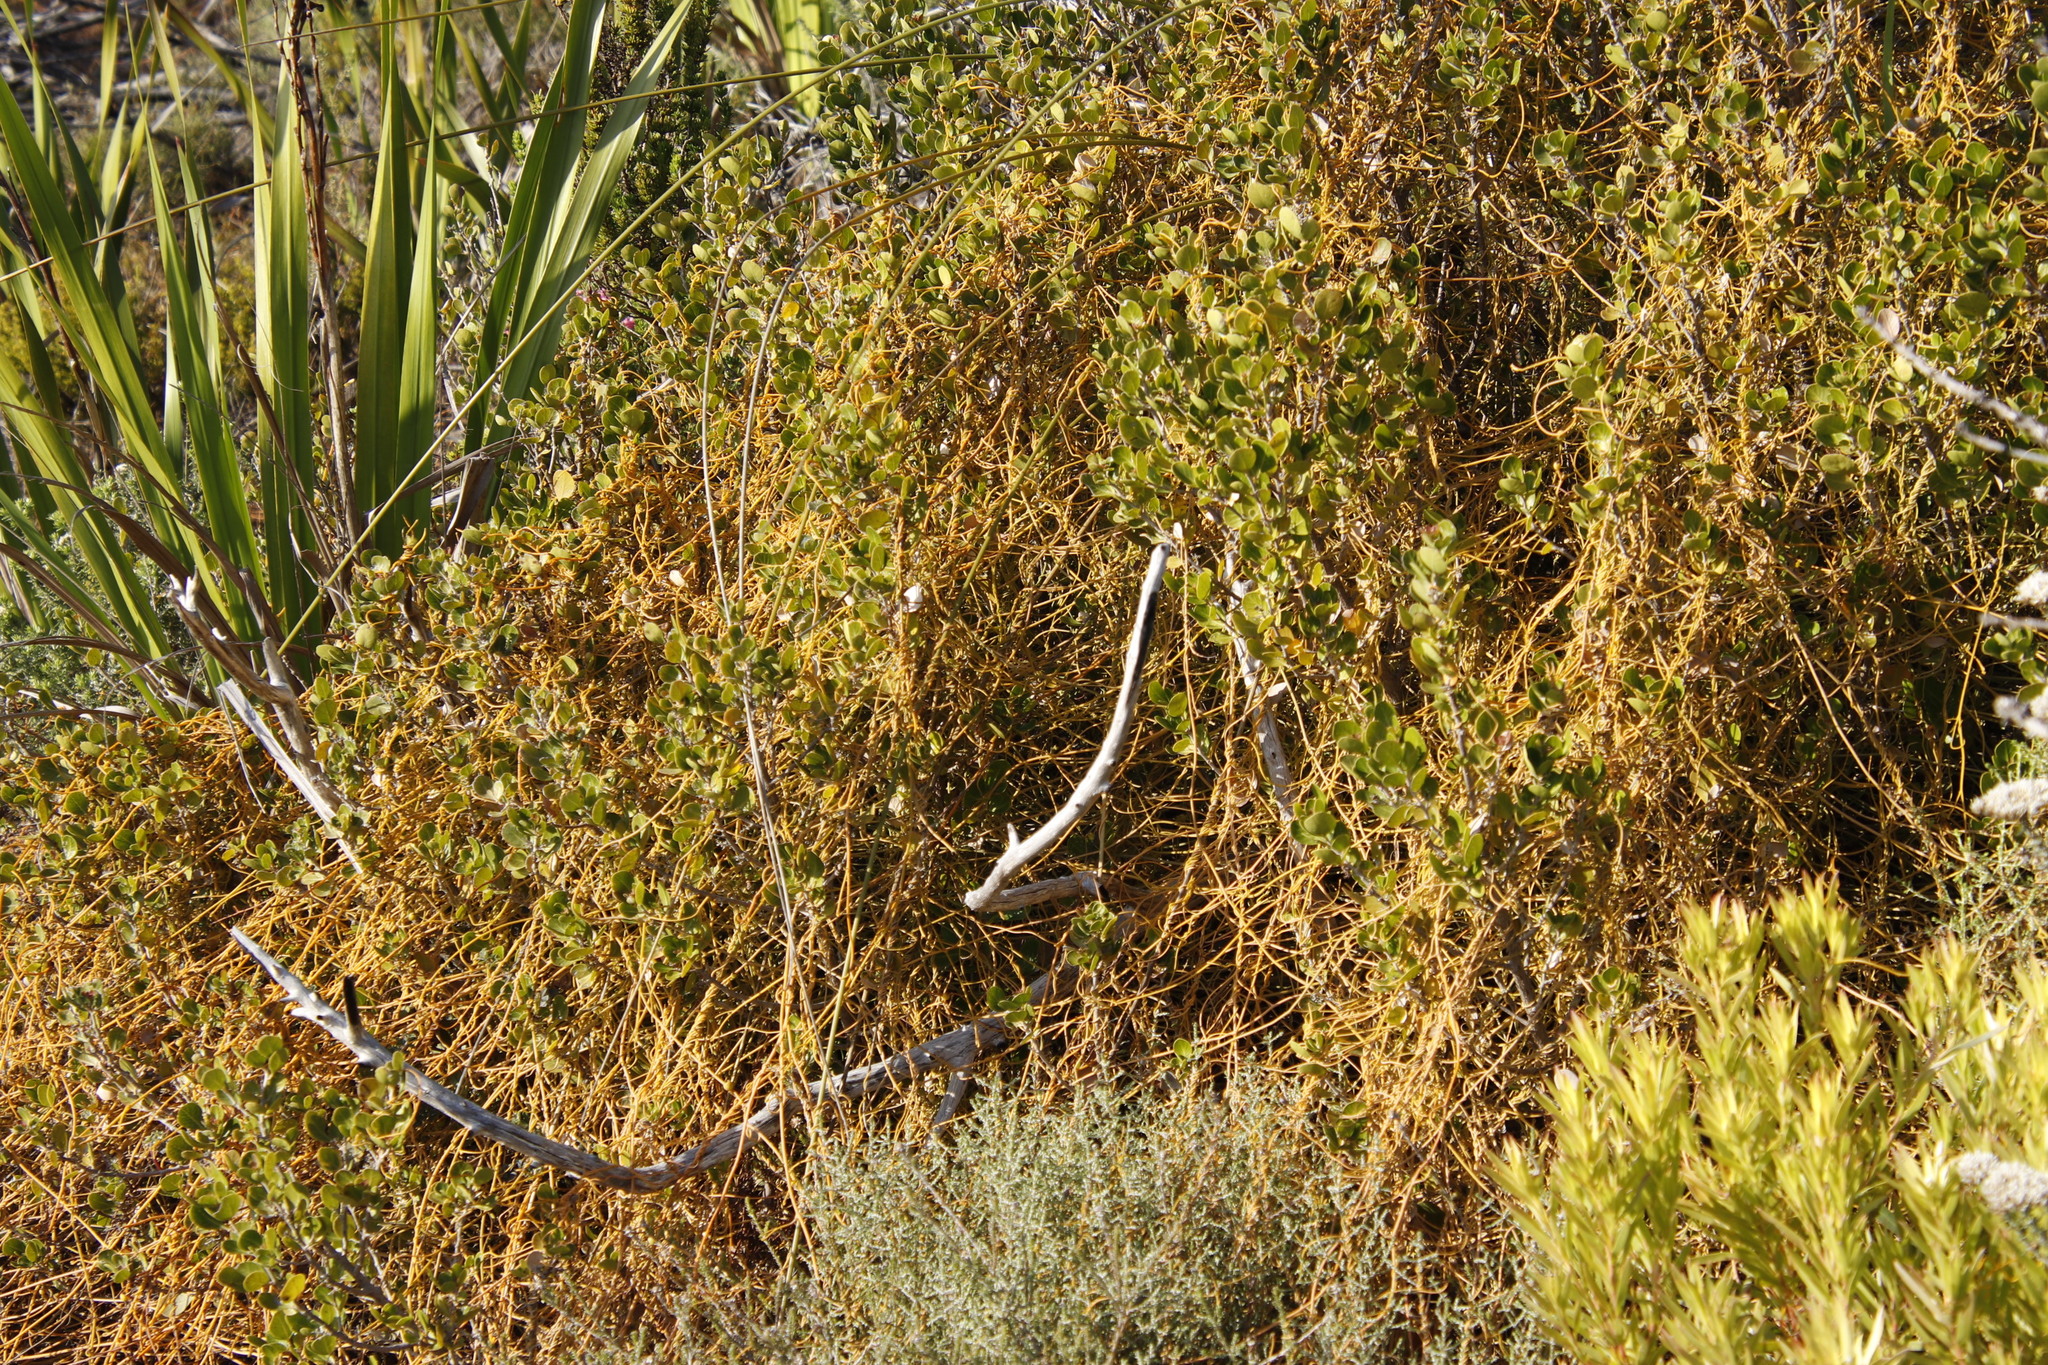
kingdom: Plantae
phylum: Tracheophyta
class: Magnoliopsida
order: Laurales
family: Lauraceae
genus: Cassytha
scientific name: Cassytha ciliolata
